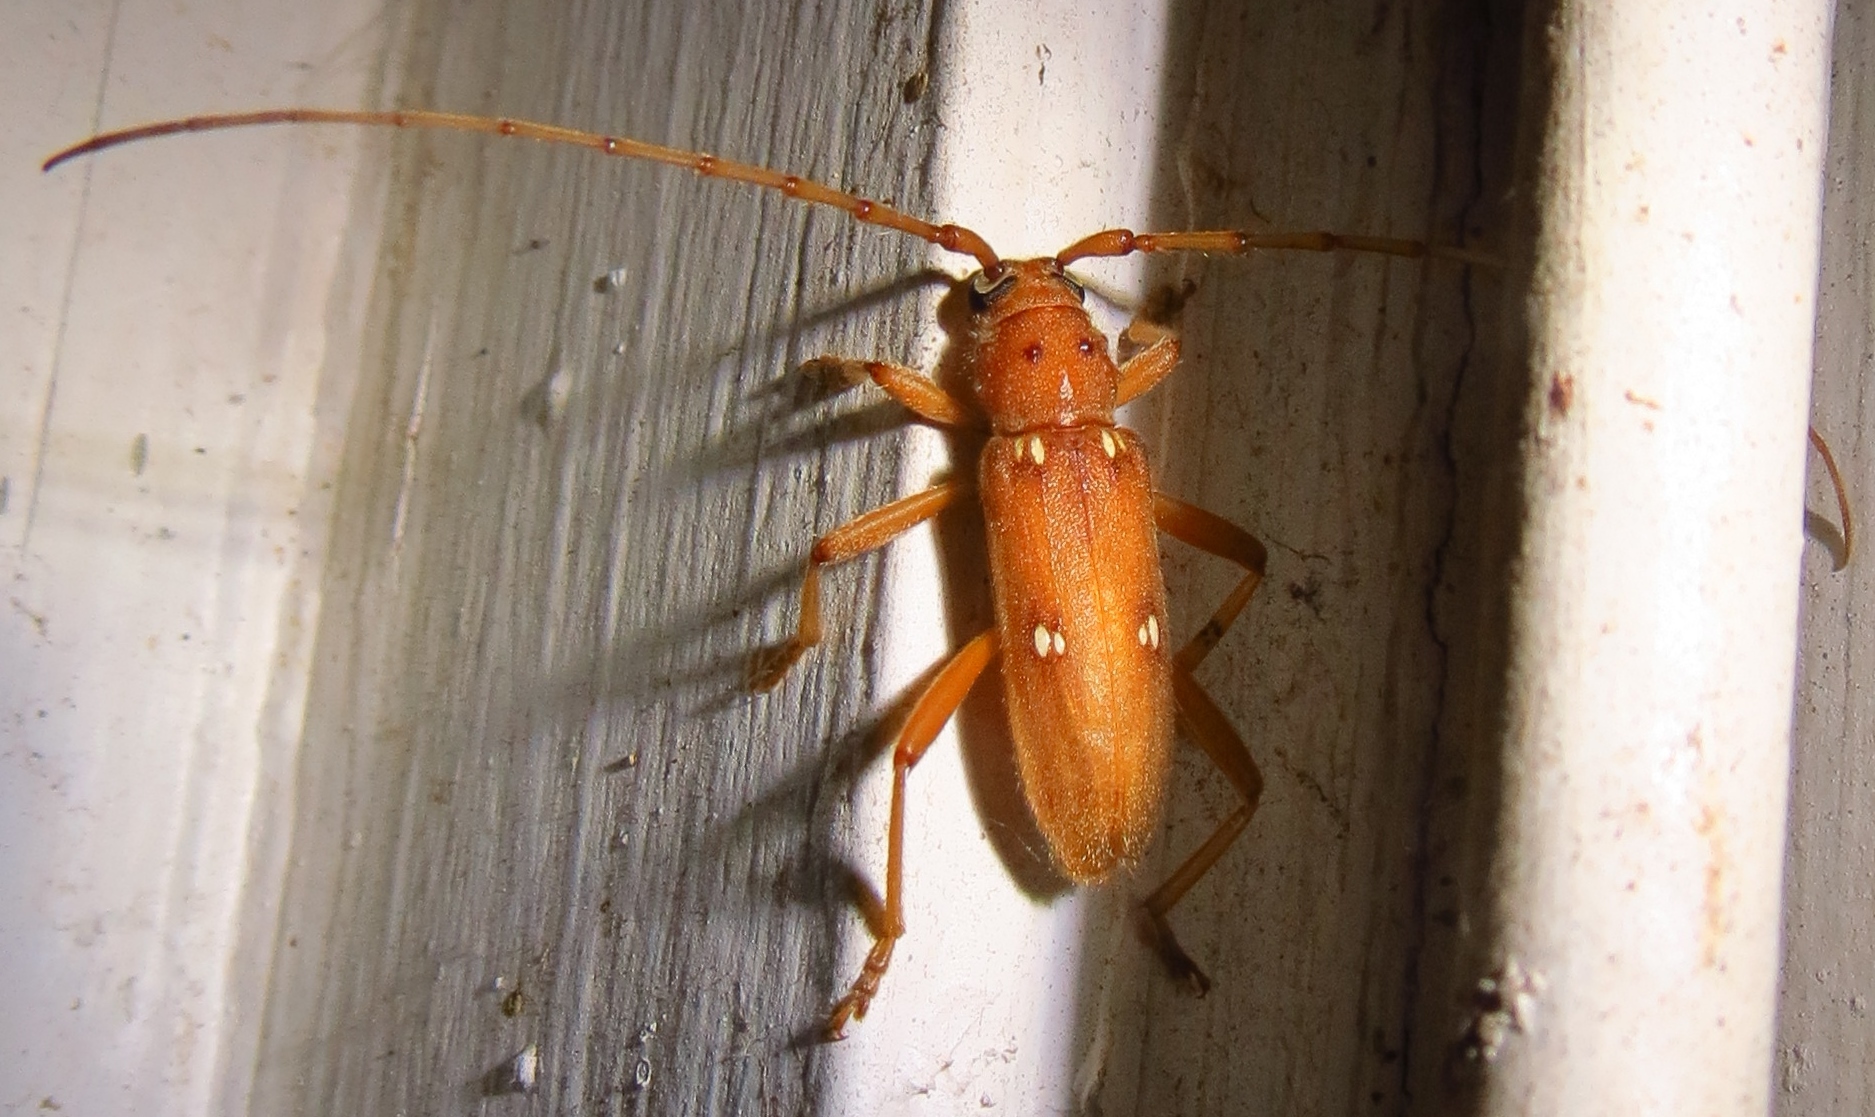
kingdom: Animalia
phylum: Arthropoda
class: Insecta
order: Coleoptera
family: Cerambycidae
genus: Eburia
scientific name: Eburia mutica
